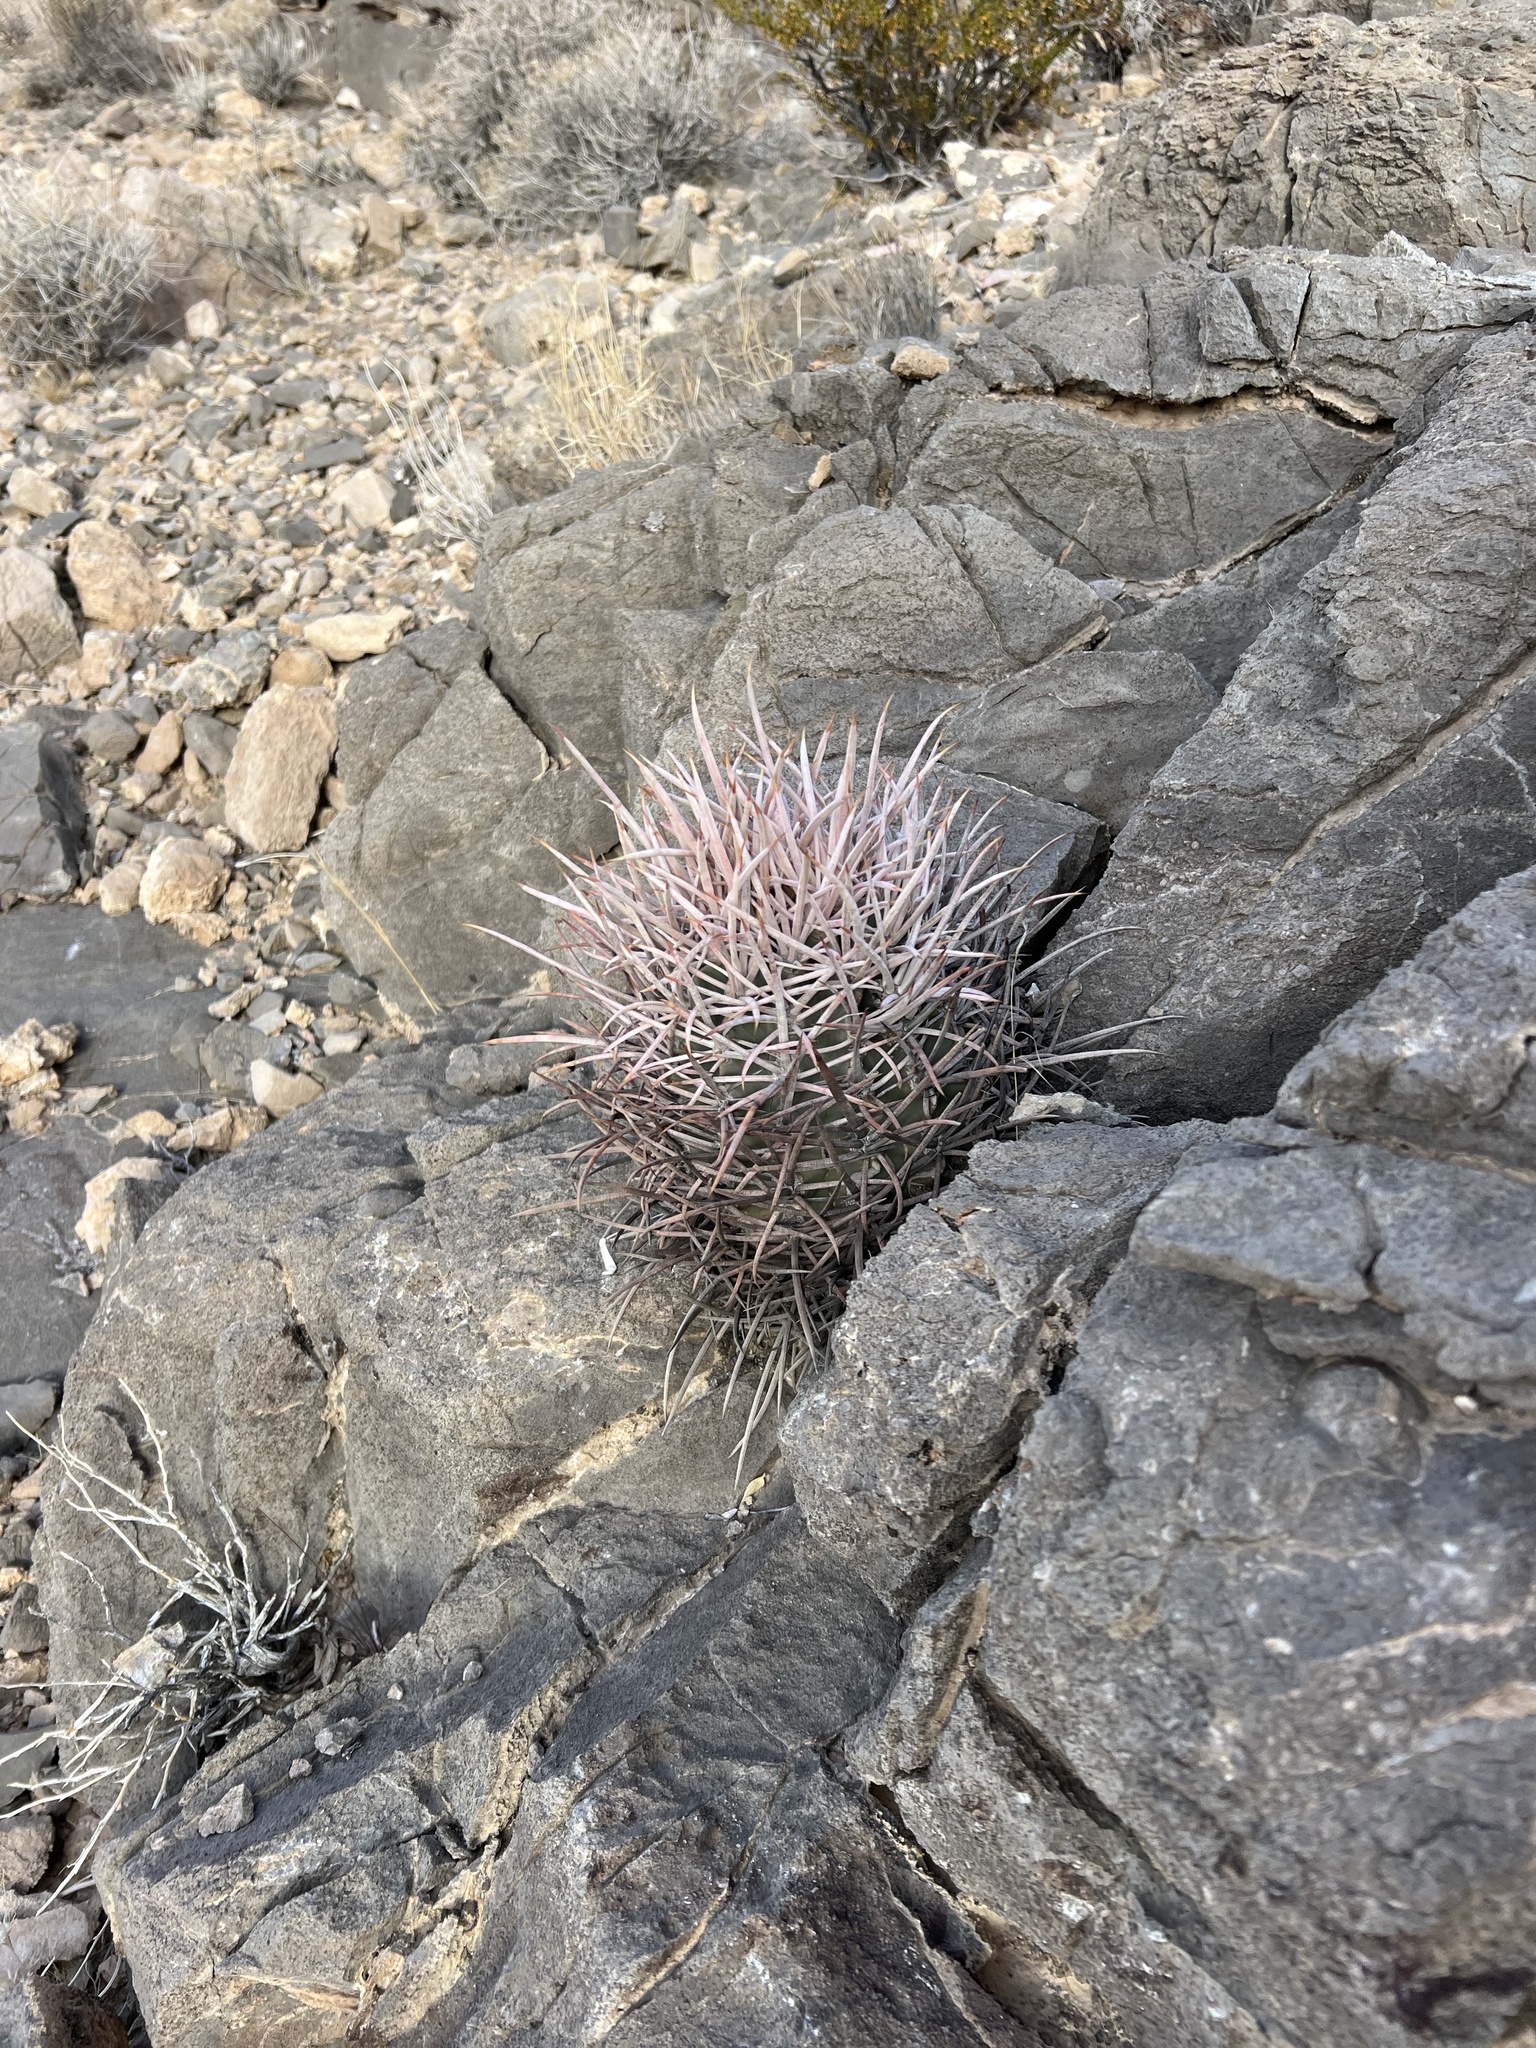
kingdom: Plantae
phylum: Tracheophyta
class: Magnoliopsida
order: Caryophyllales
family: Cactaceae
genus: Echinocactus
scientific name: Echinocactus polycephalus
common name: Cottontop cactus
